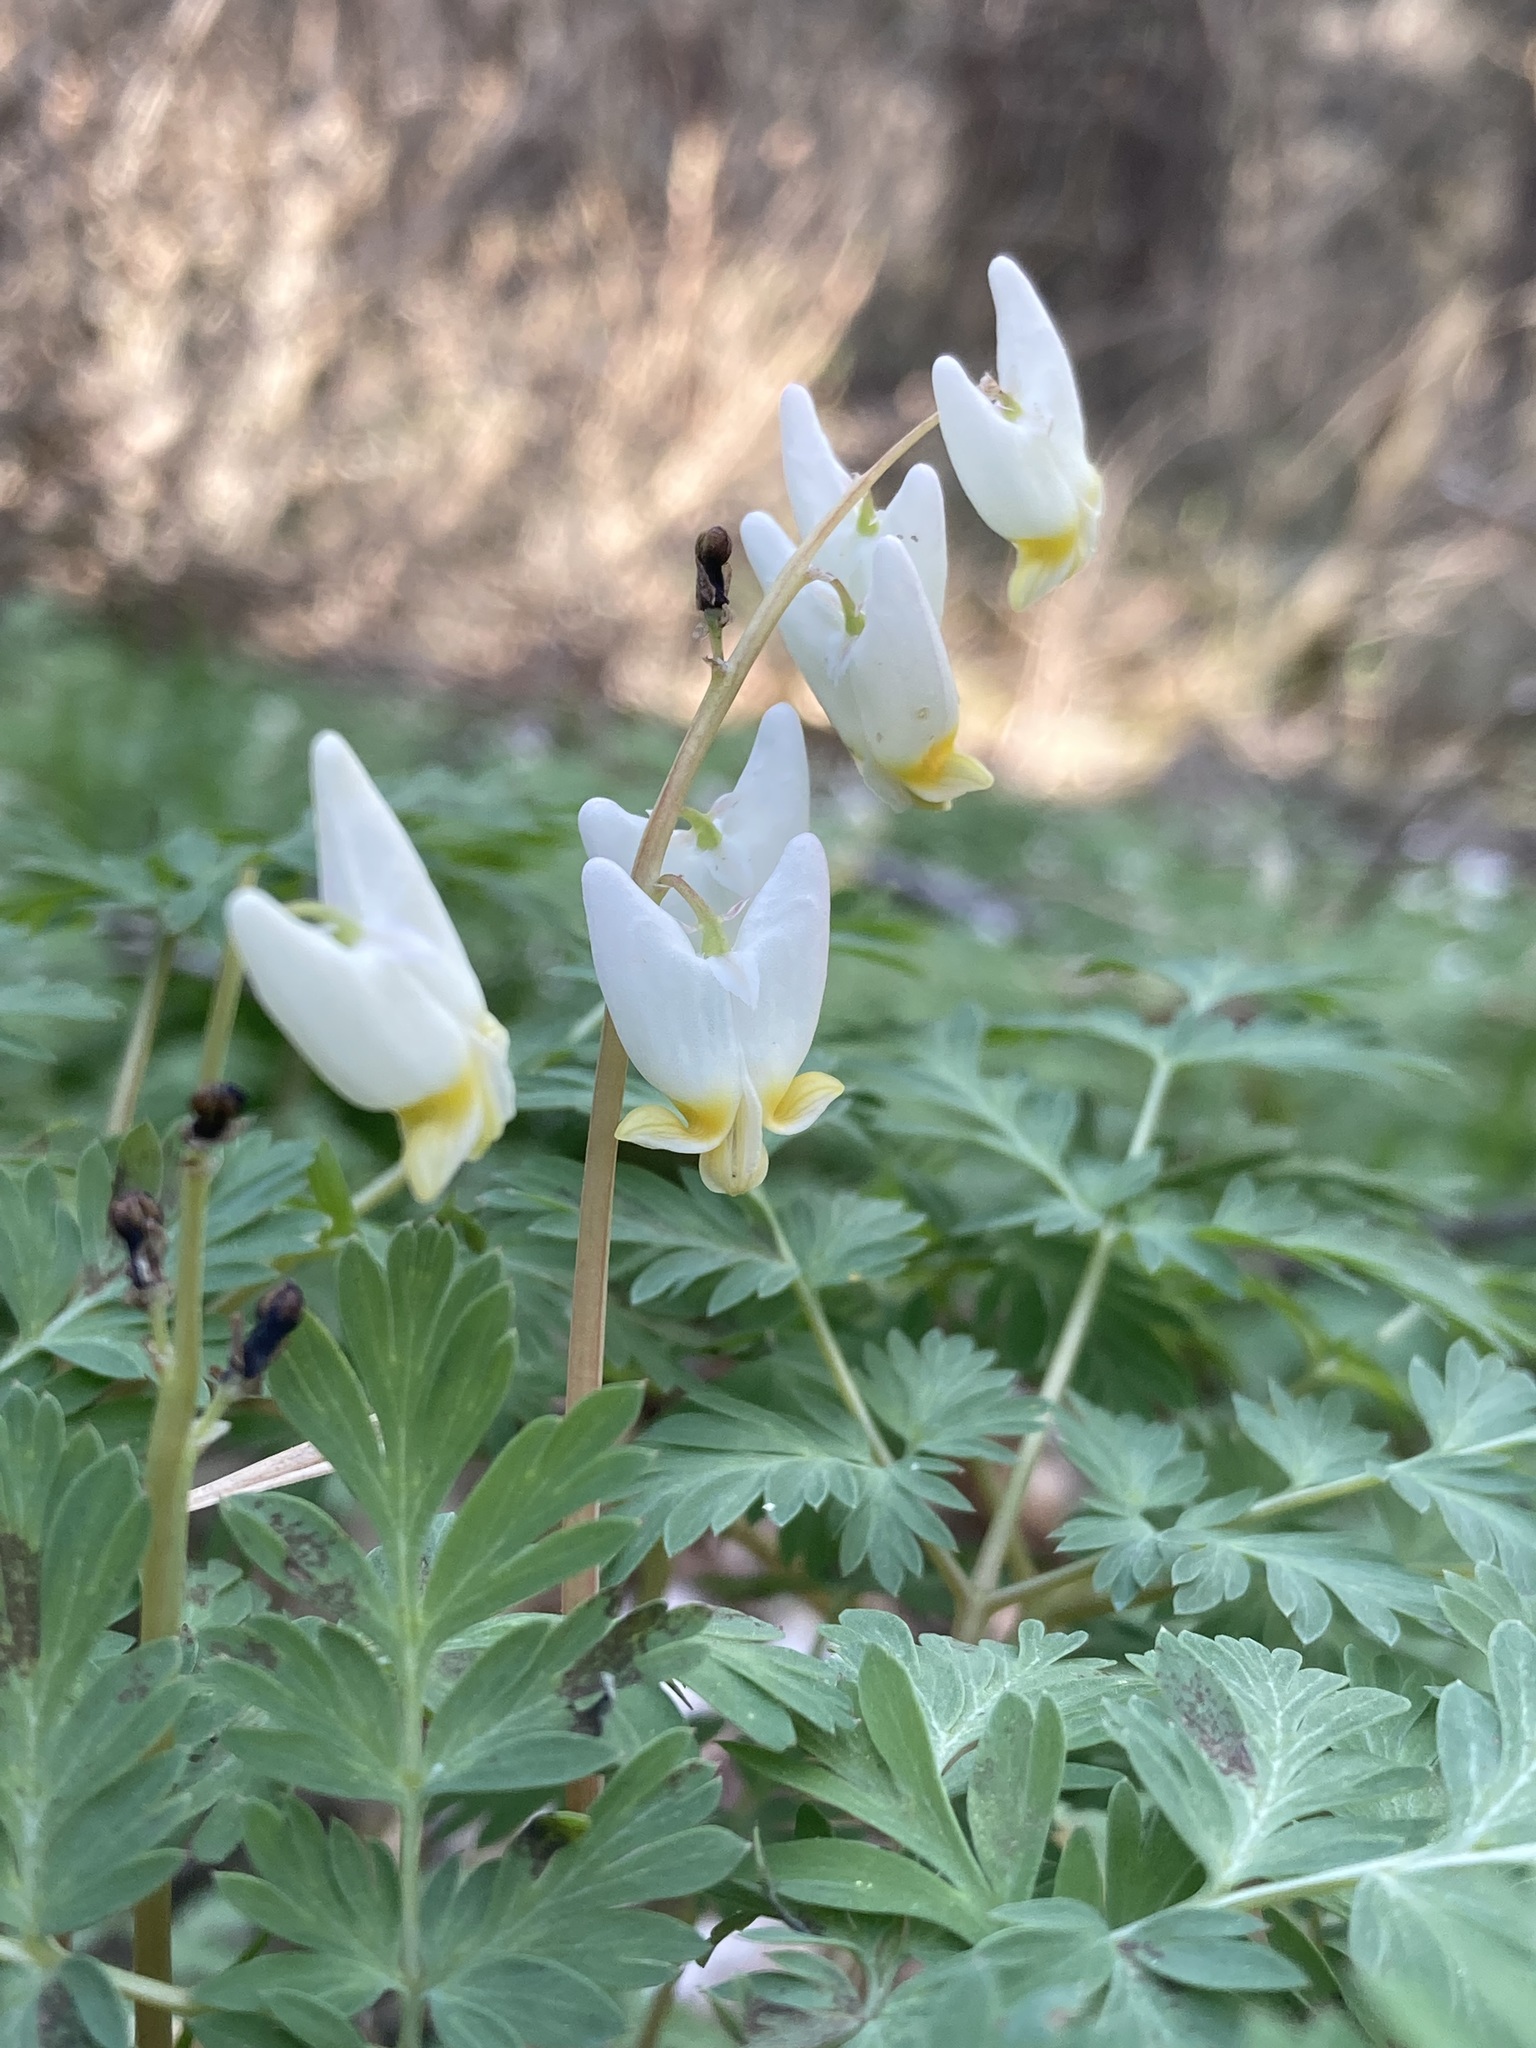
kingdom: Plantae
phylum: Tracheophyta
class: Magnoliopsida
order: Ranunculales
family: Papaveraceae
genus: Dicentra
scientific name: Dicentra cucullaria
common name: Dutchman's breeches
